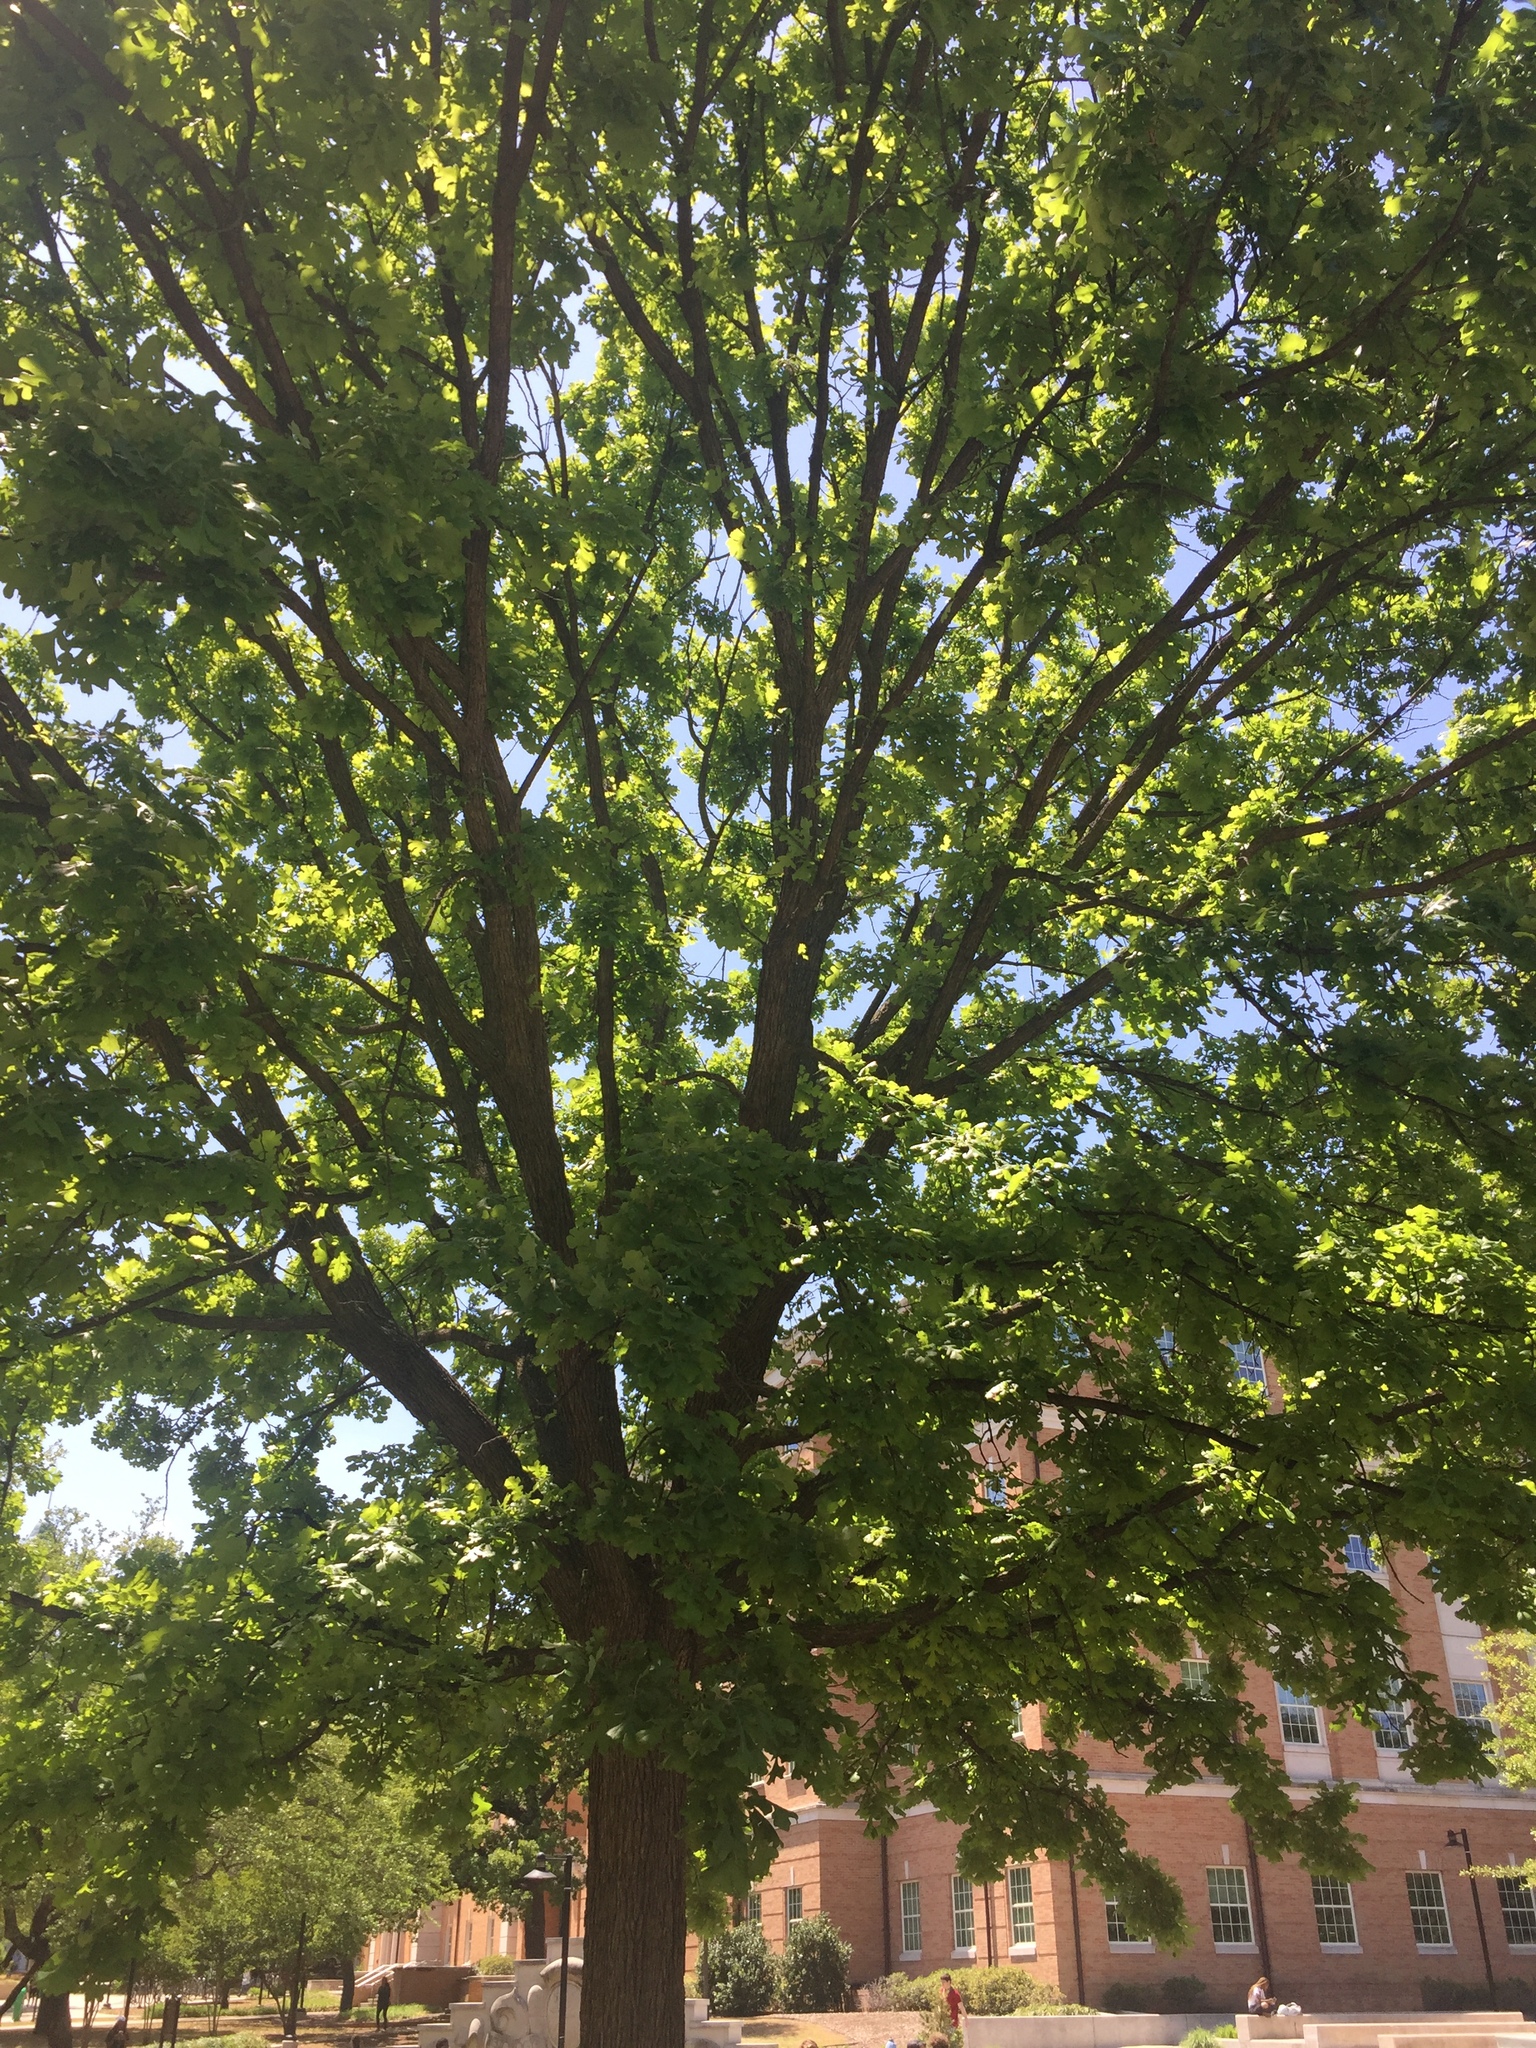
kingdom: Plantae
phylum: Tracheophyta
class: Magnoliopsida
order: Fagales
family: Fagaceae
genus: Quercus
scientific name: Quercus stellata
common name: Post oak
